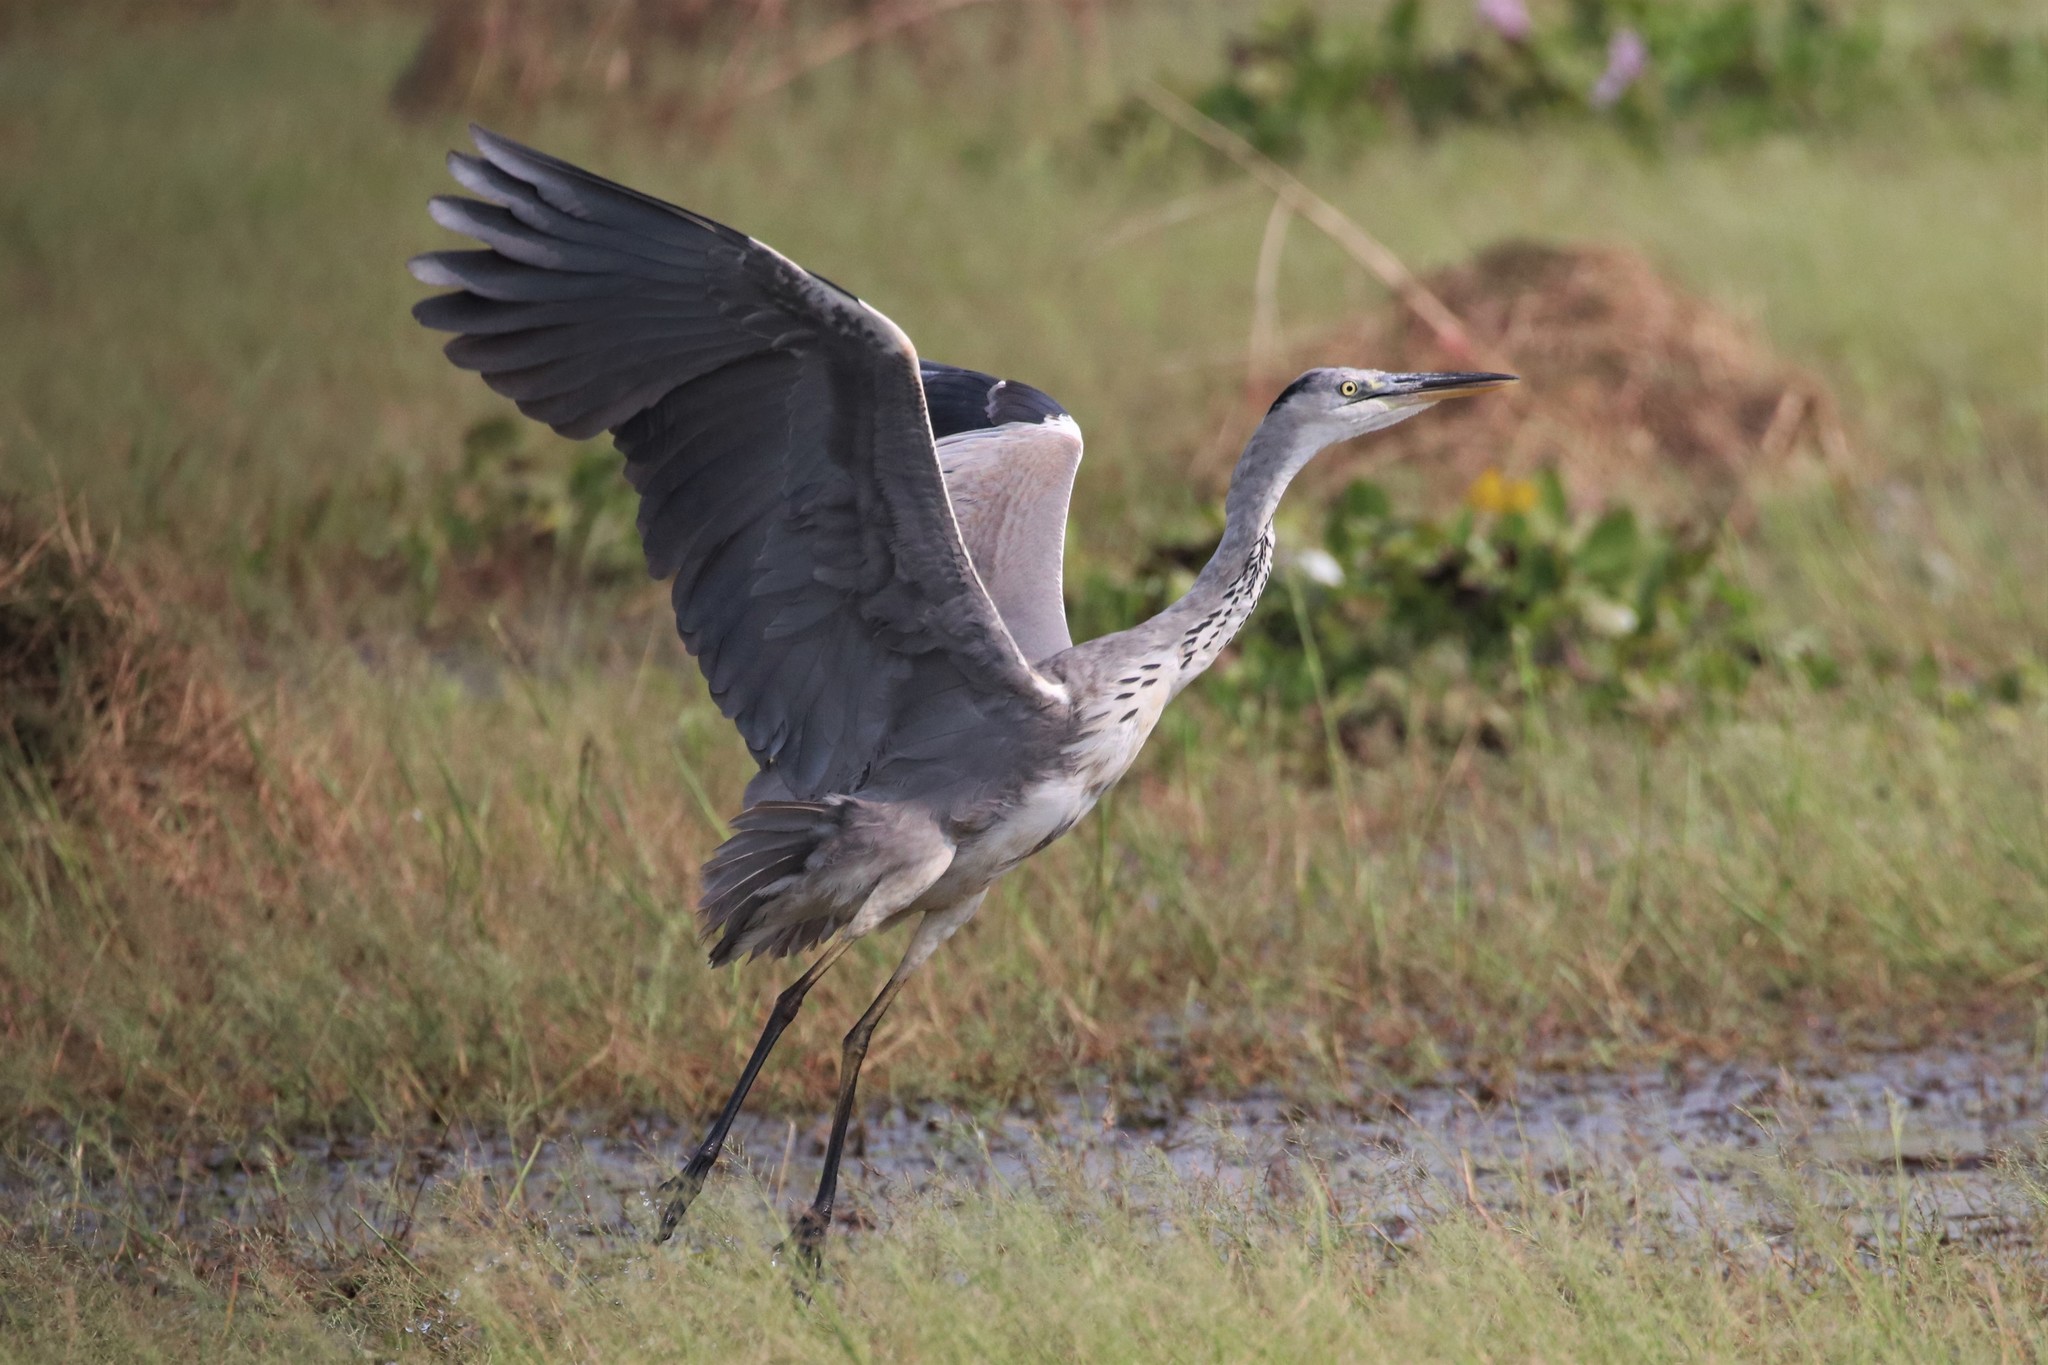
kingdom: Animalia
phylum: Chordata
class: Aves
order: Pelecaniformes
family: Ardeidae
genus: Ardea
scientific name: Ardea cinerea
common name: Grey heron
